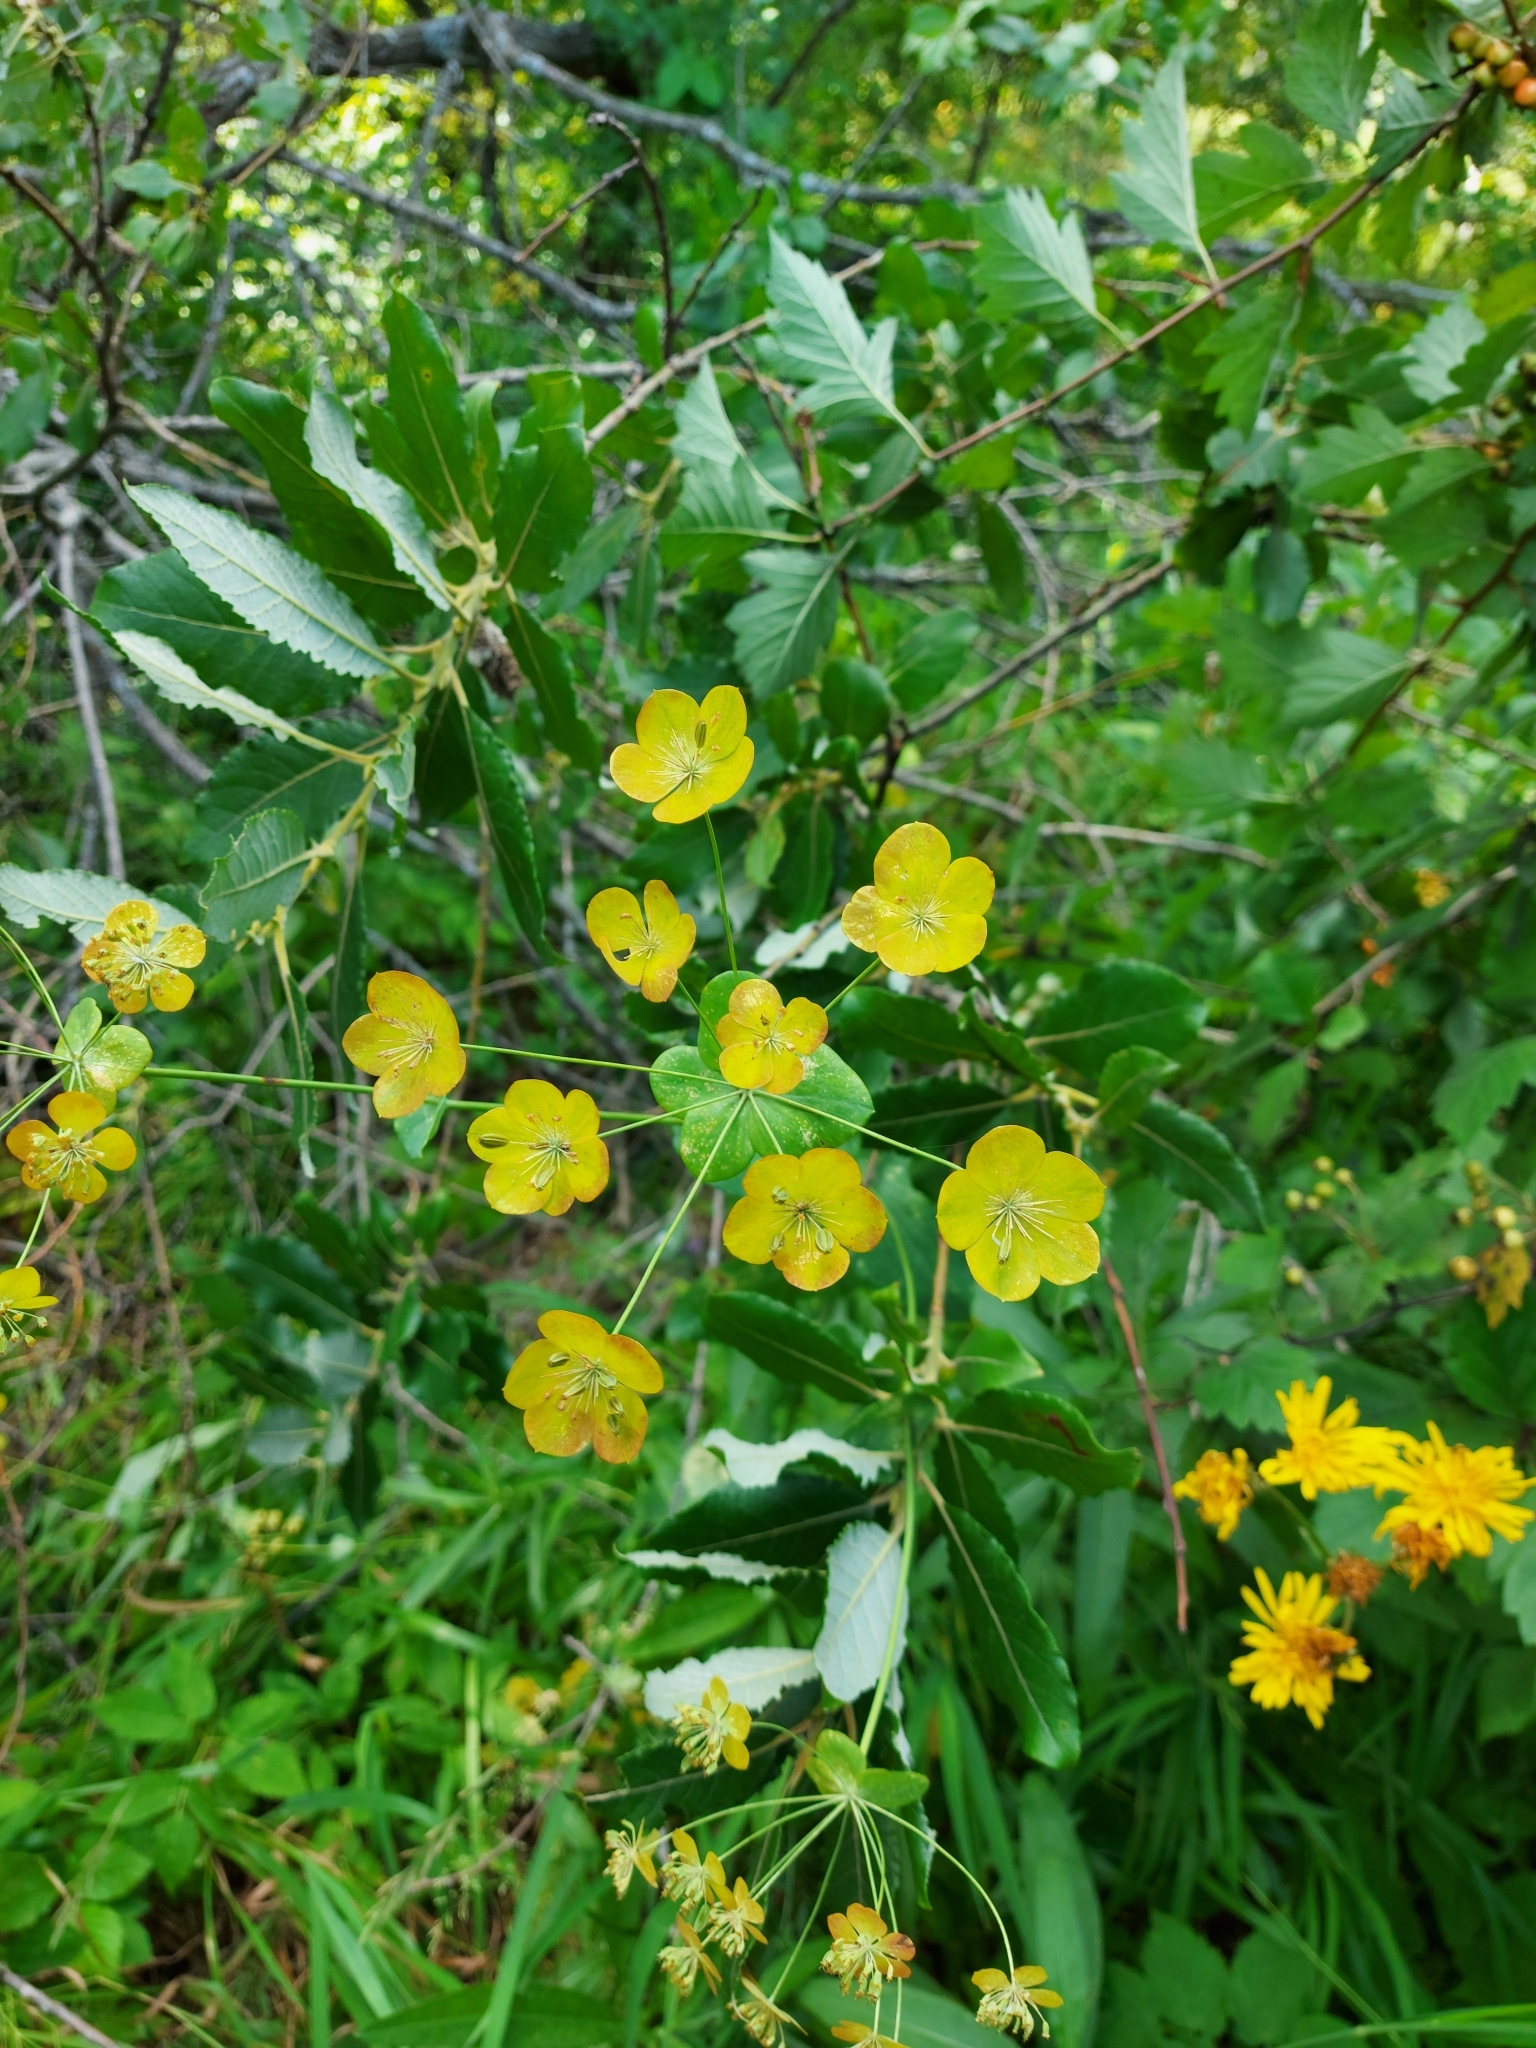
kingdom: Plantae
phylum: Tracheophyta
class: Magnoliopsida
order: Apiales
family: Apiaceae
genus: Bupleurum
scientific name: Bupleurum aureum
